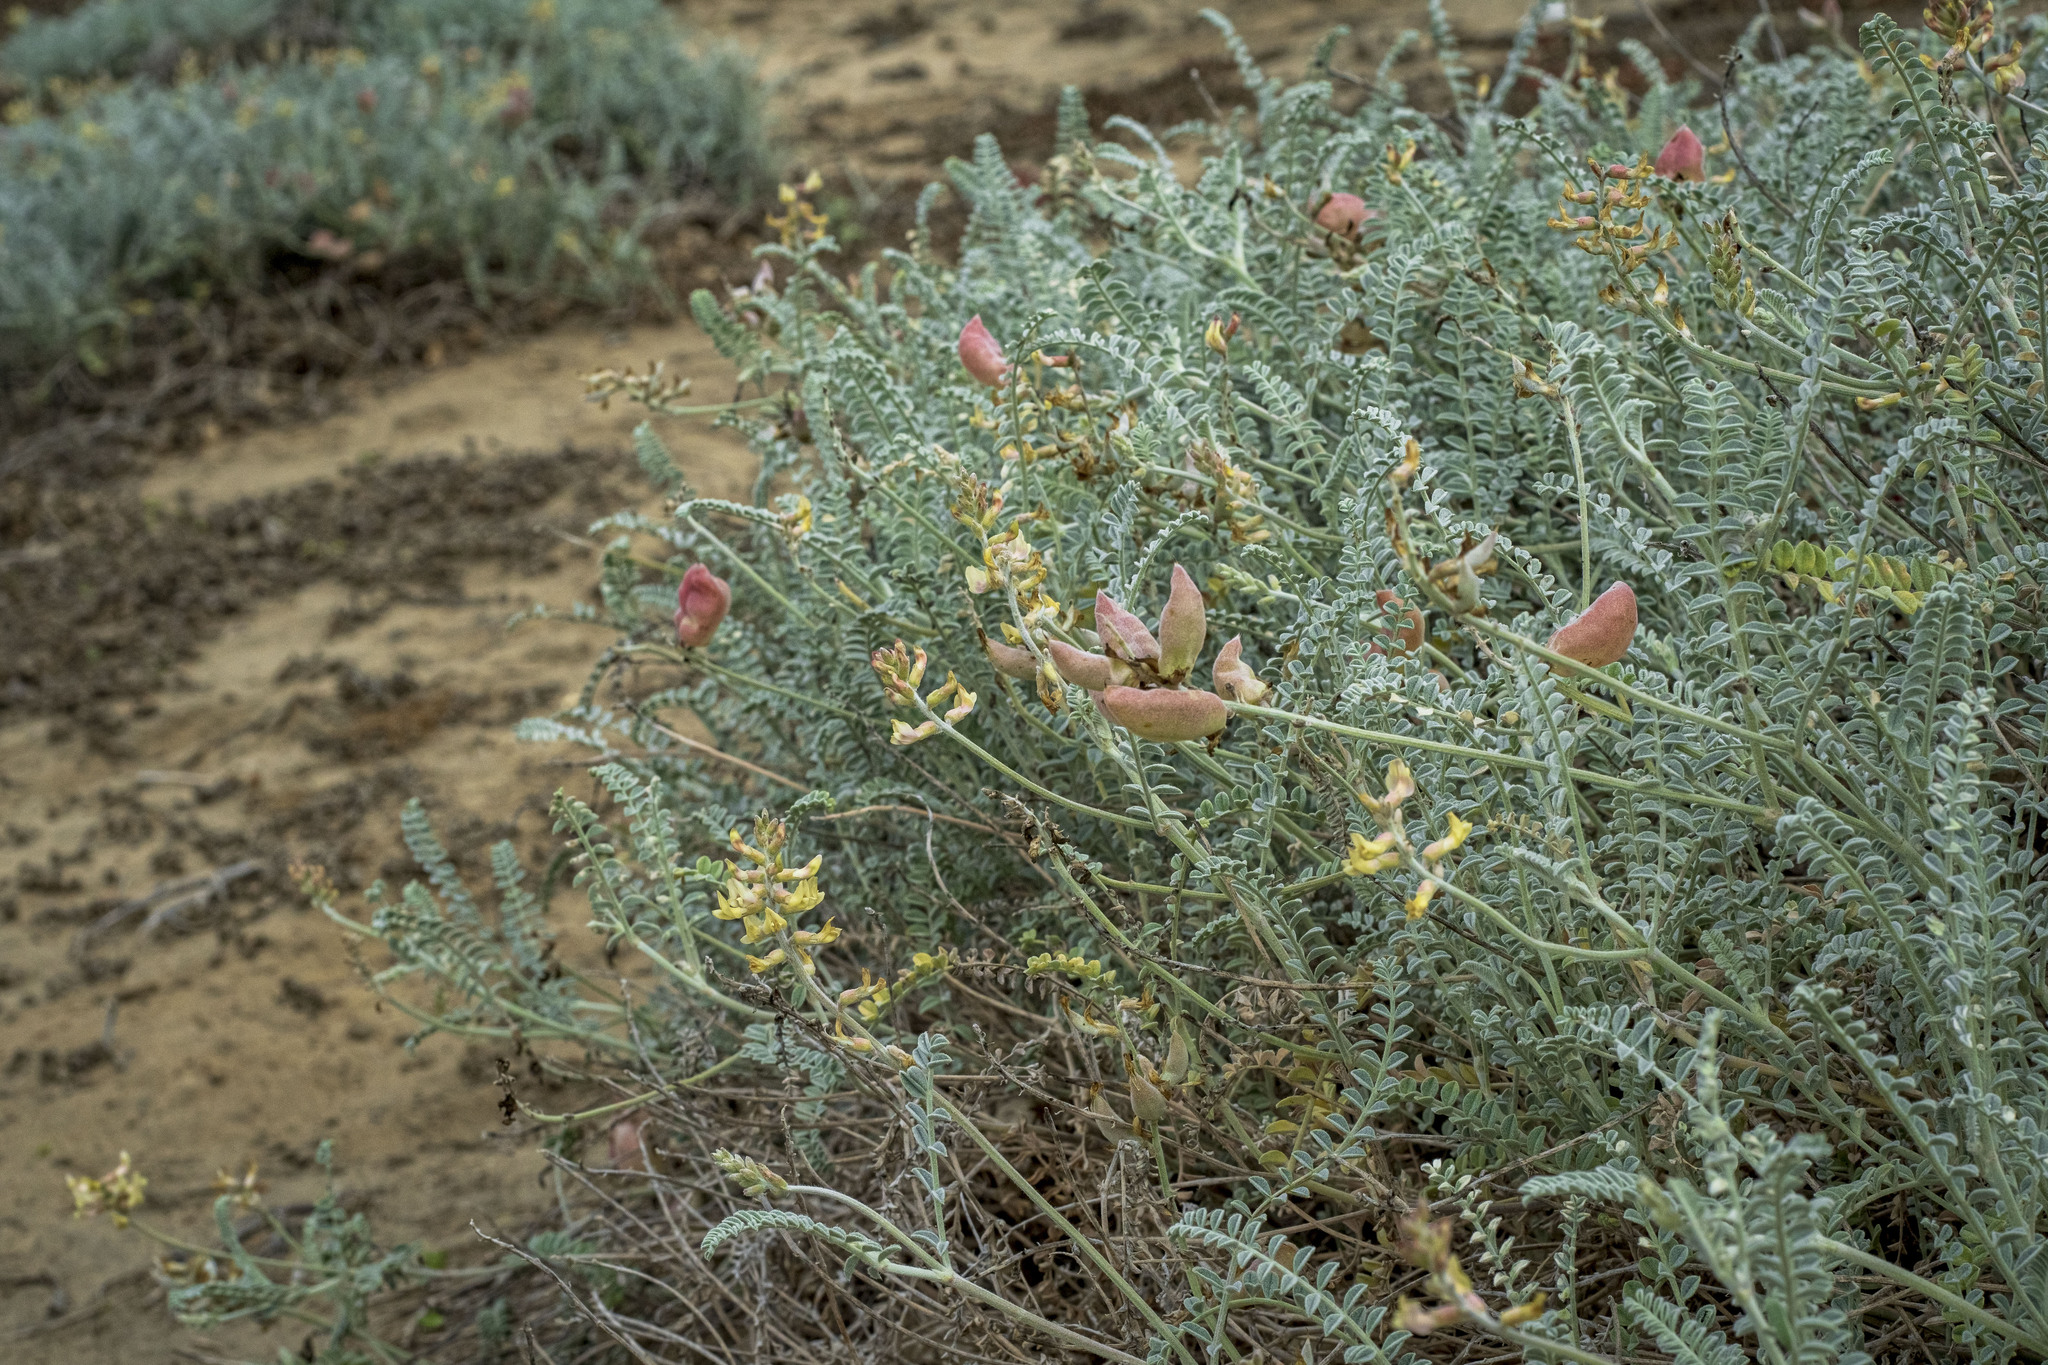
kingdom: Plantae
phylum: Tracheophyta
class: Magnoliopsida
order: Fabales
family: Fabaceae
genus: Astragalus
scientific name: Astragalus anemophilus
